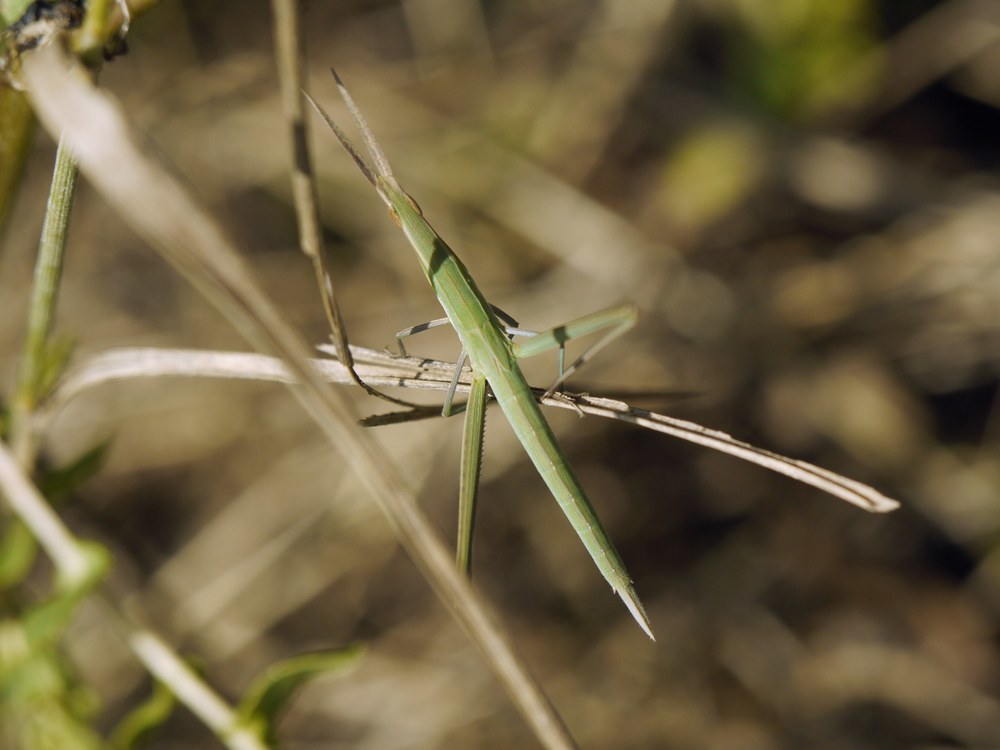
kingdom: Animalia
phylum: Arthropoda
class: Insecta
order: Orthoptera
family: Acrididae
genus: Acrida
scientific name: Acrida ungarica
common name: Common cone-headed grasshopper
